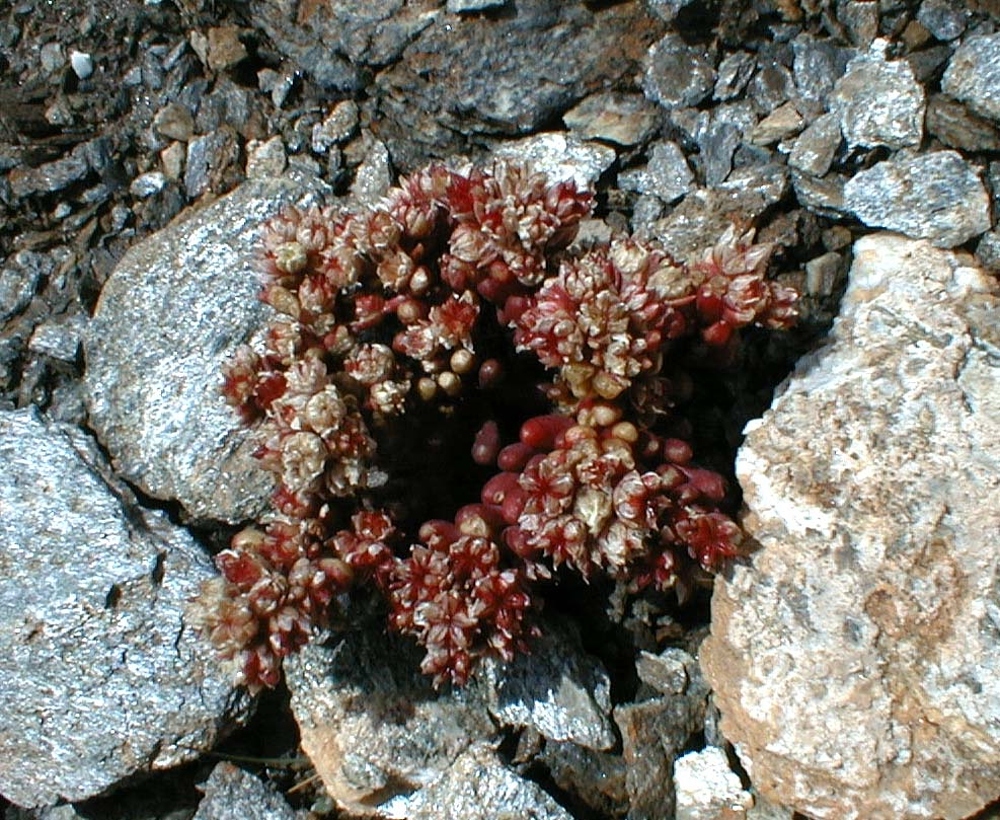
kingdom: Plantae
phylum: Tracheophyta
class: Magnoliopsida
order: Saxifragales
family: Crassulaceae
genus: Sedum
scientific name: Sedum atratum
